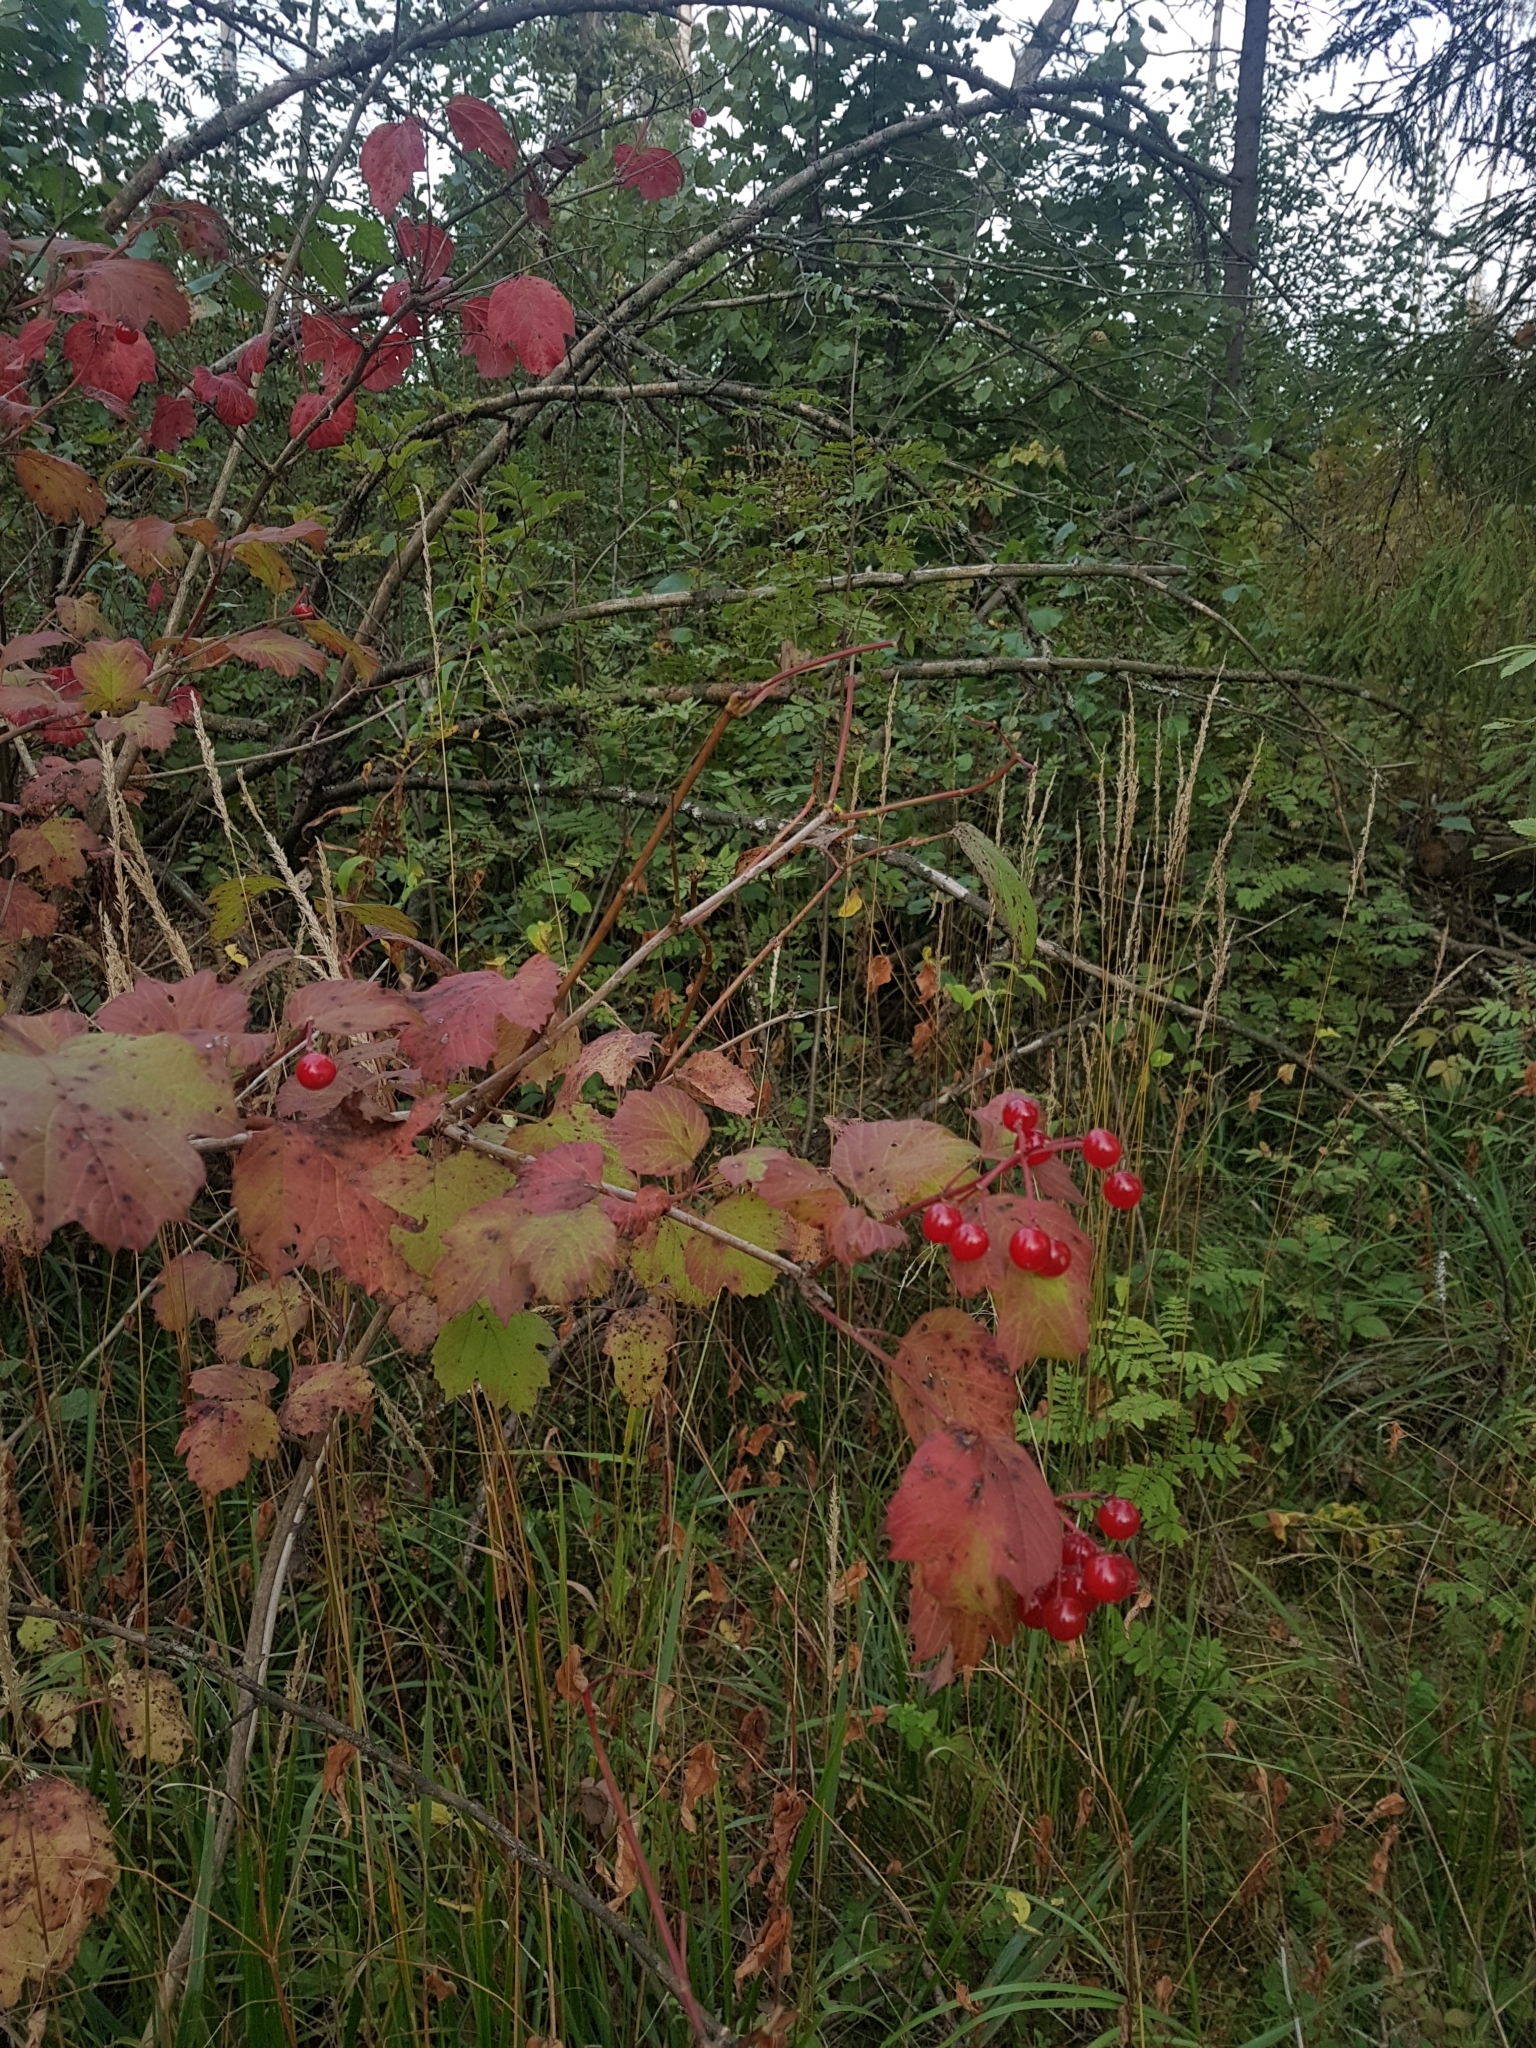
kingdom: Plantae
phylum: Tracheophyta
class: Magnoliopsida
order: Dipsacales
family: Viburnaceae
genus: Viburnum
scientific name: Viburnum opulus
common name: Guelder-rose
